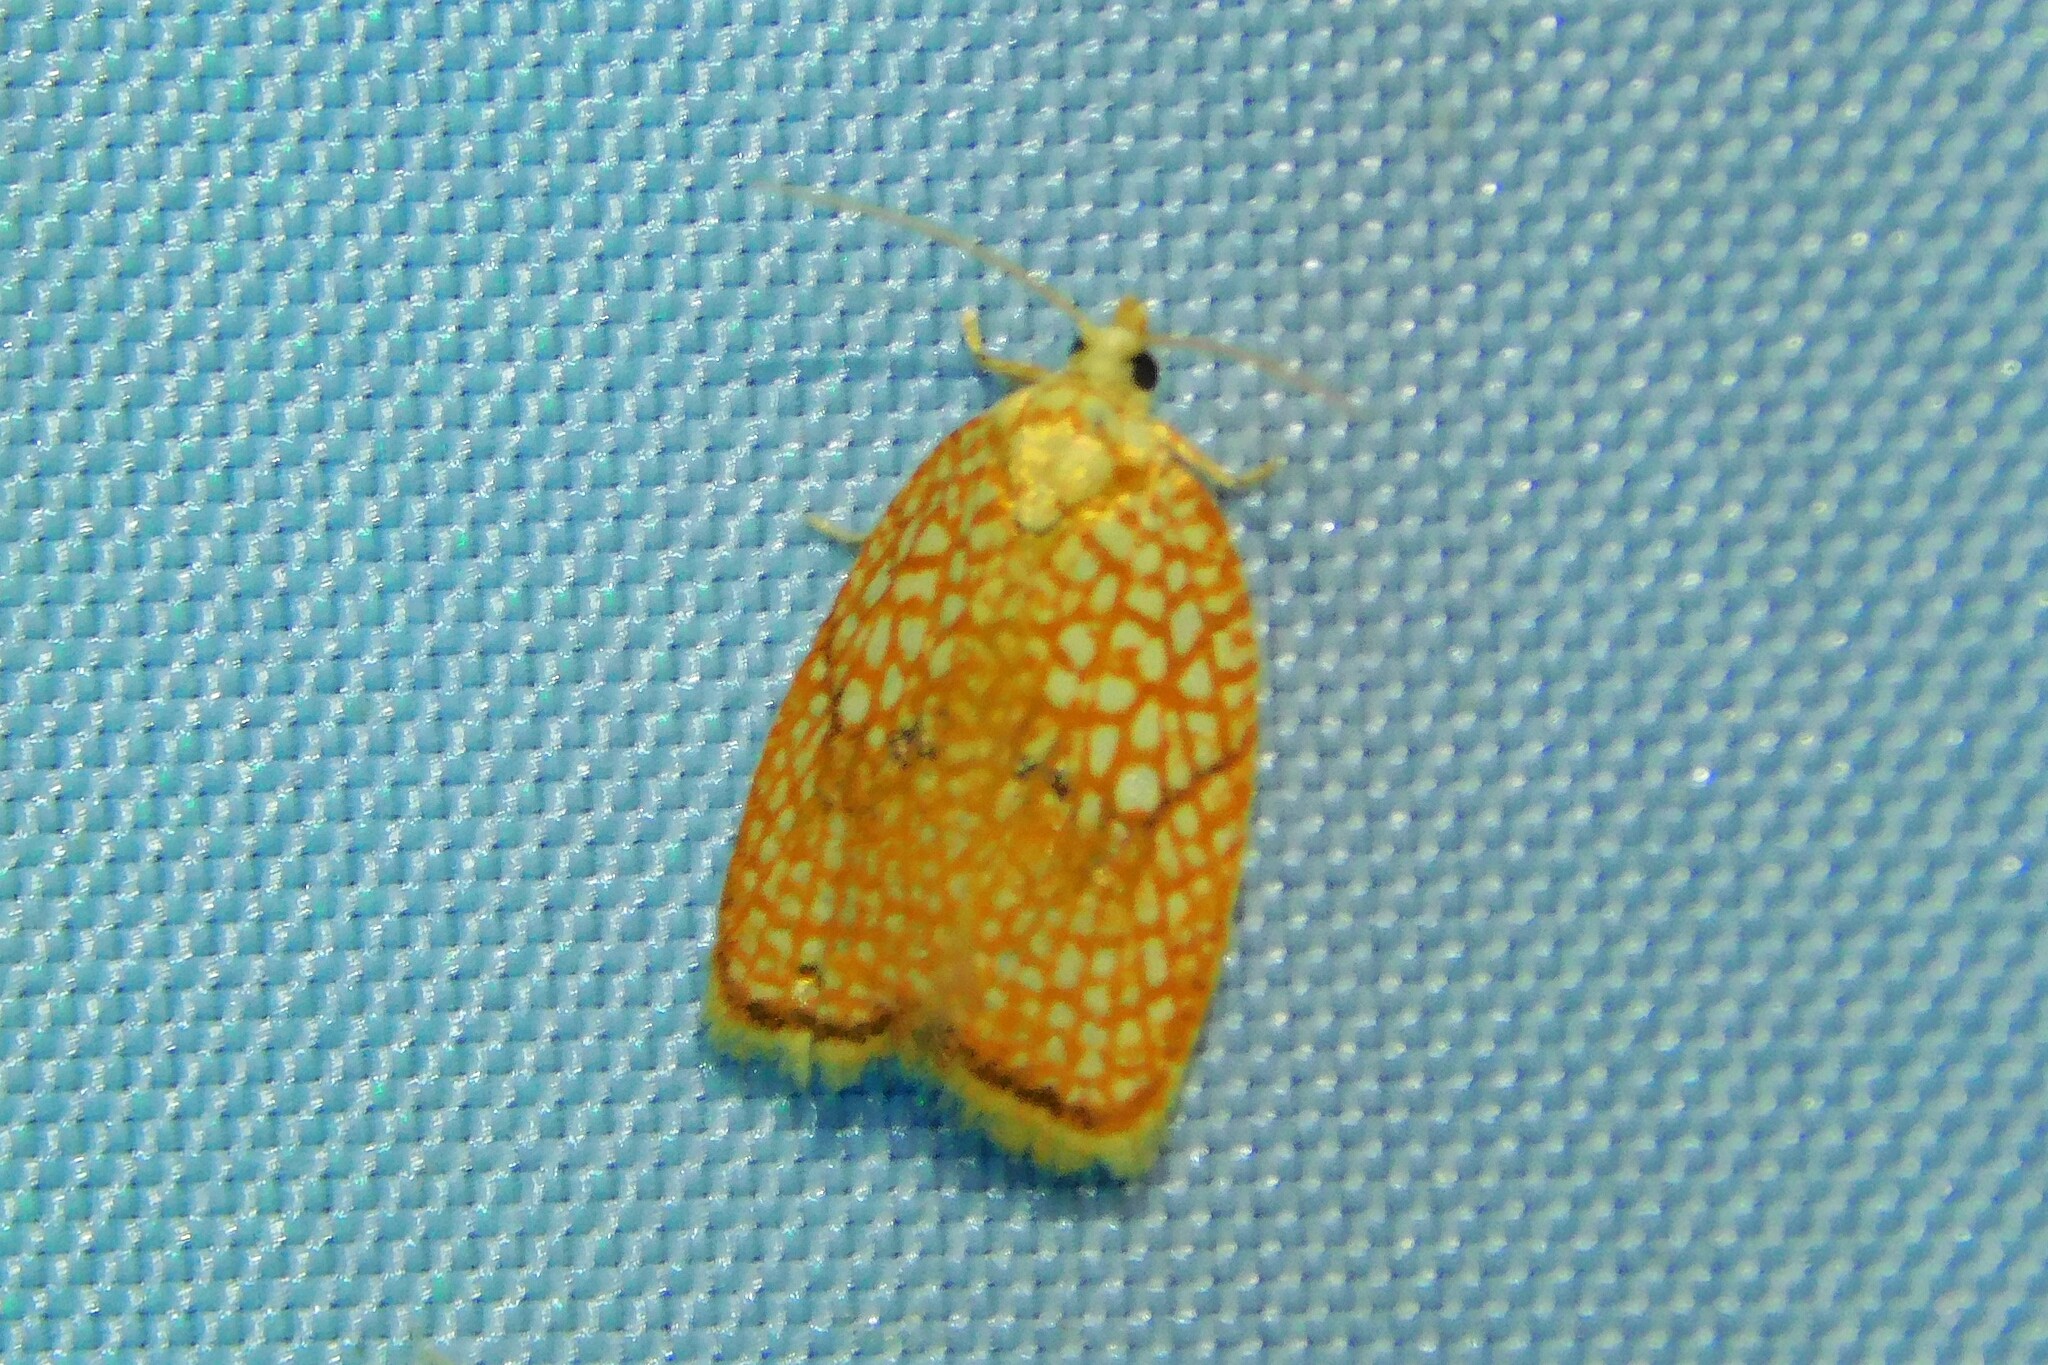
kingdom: Animalia
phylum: Arthropoda
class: Insecta
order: Lepidoptera
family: Tortricidae
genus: Acleris
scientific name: Acleris forsskaleana
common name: Maple button
